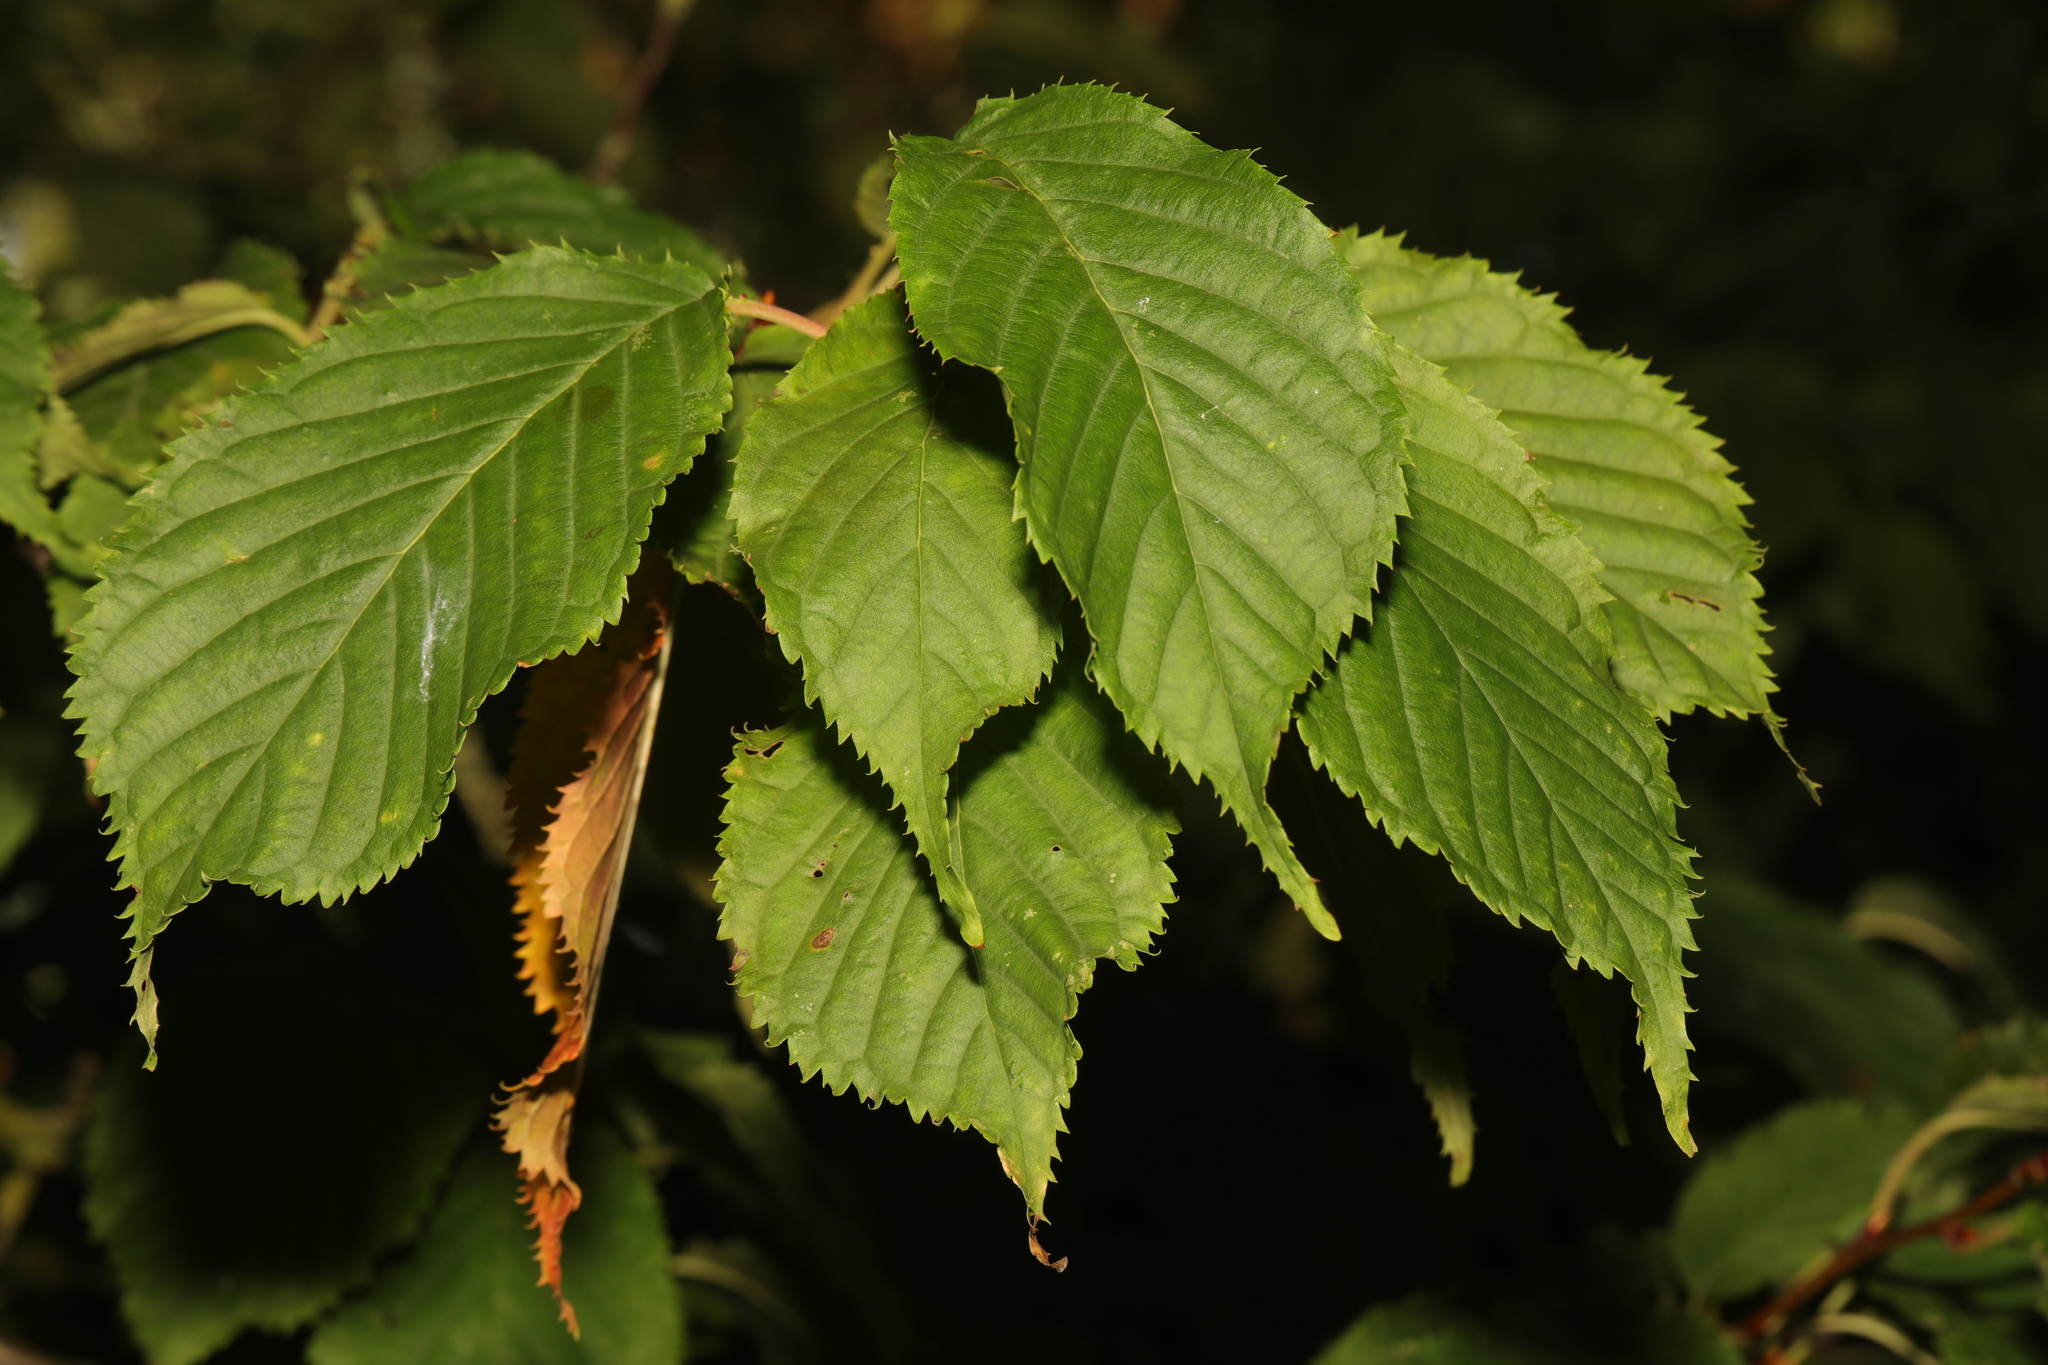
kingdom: Plantae
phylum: Tracheophyta
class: Magnoliopsida
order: Rosales
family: Ulmaceae
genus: Ulmus
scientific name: Ulmus glabra
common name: Wych elm
